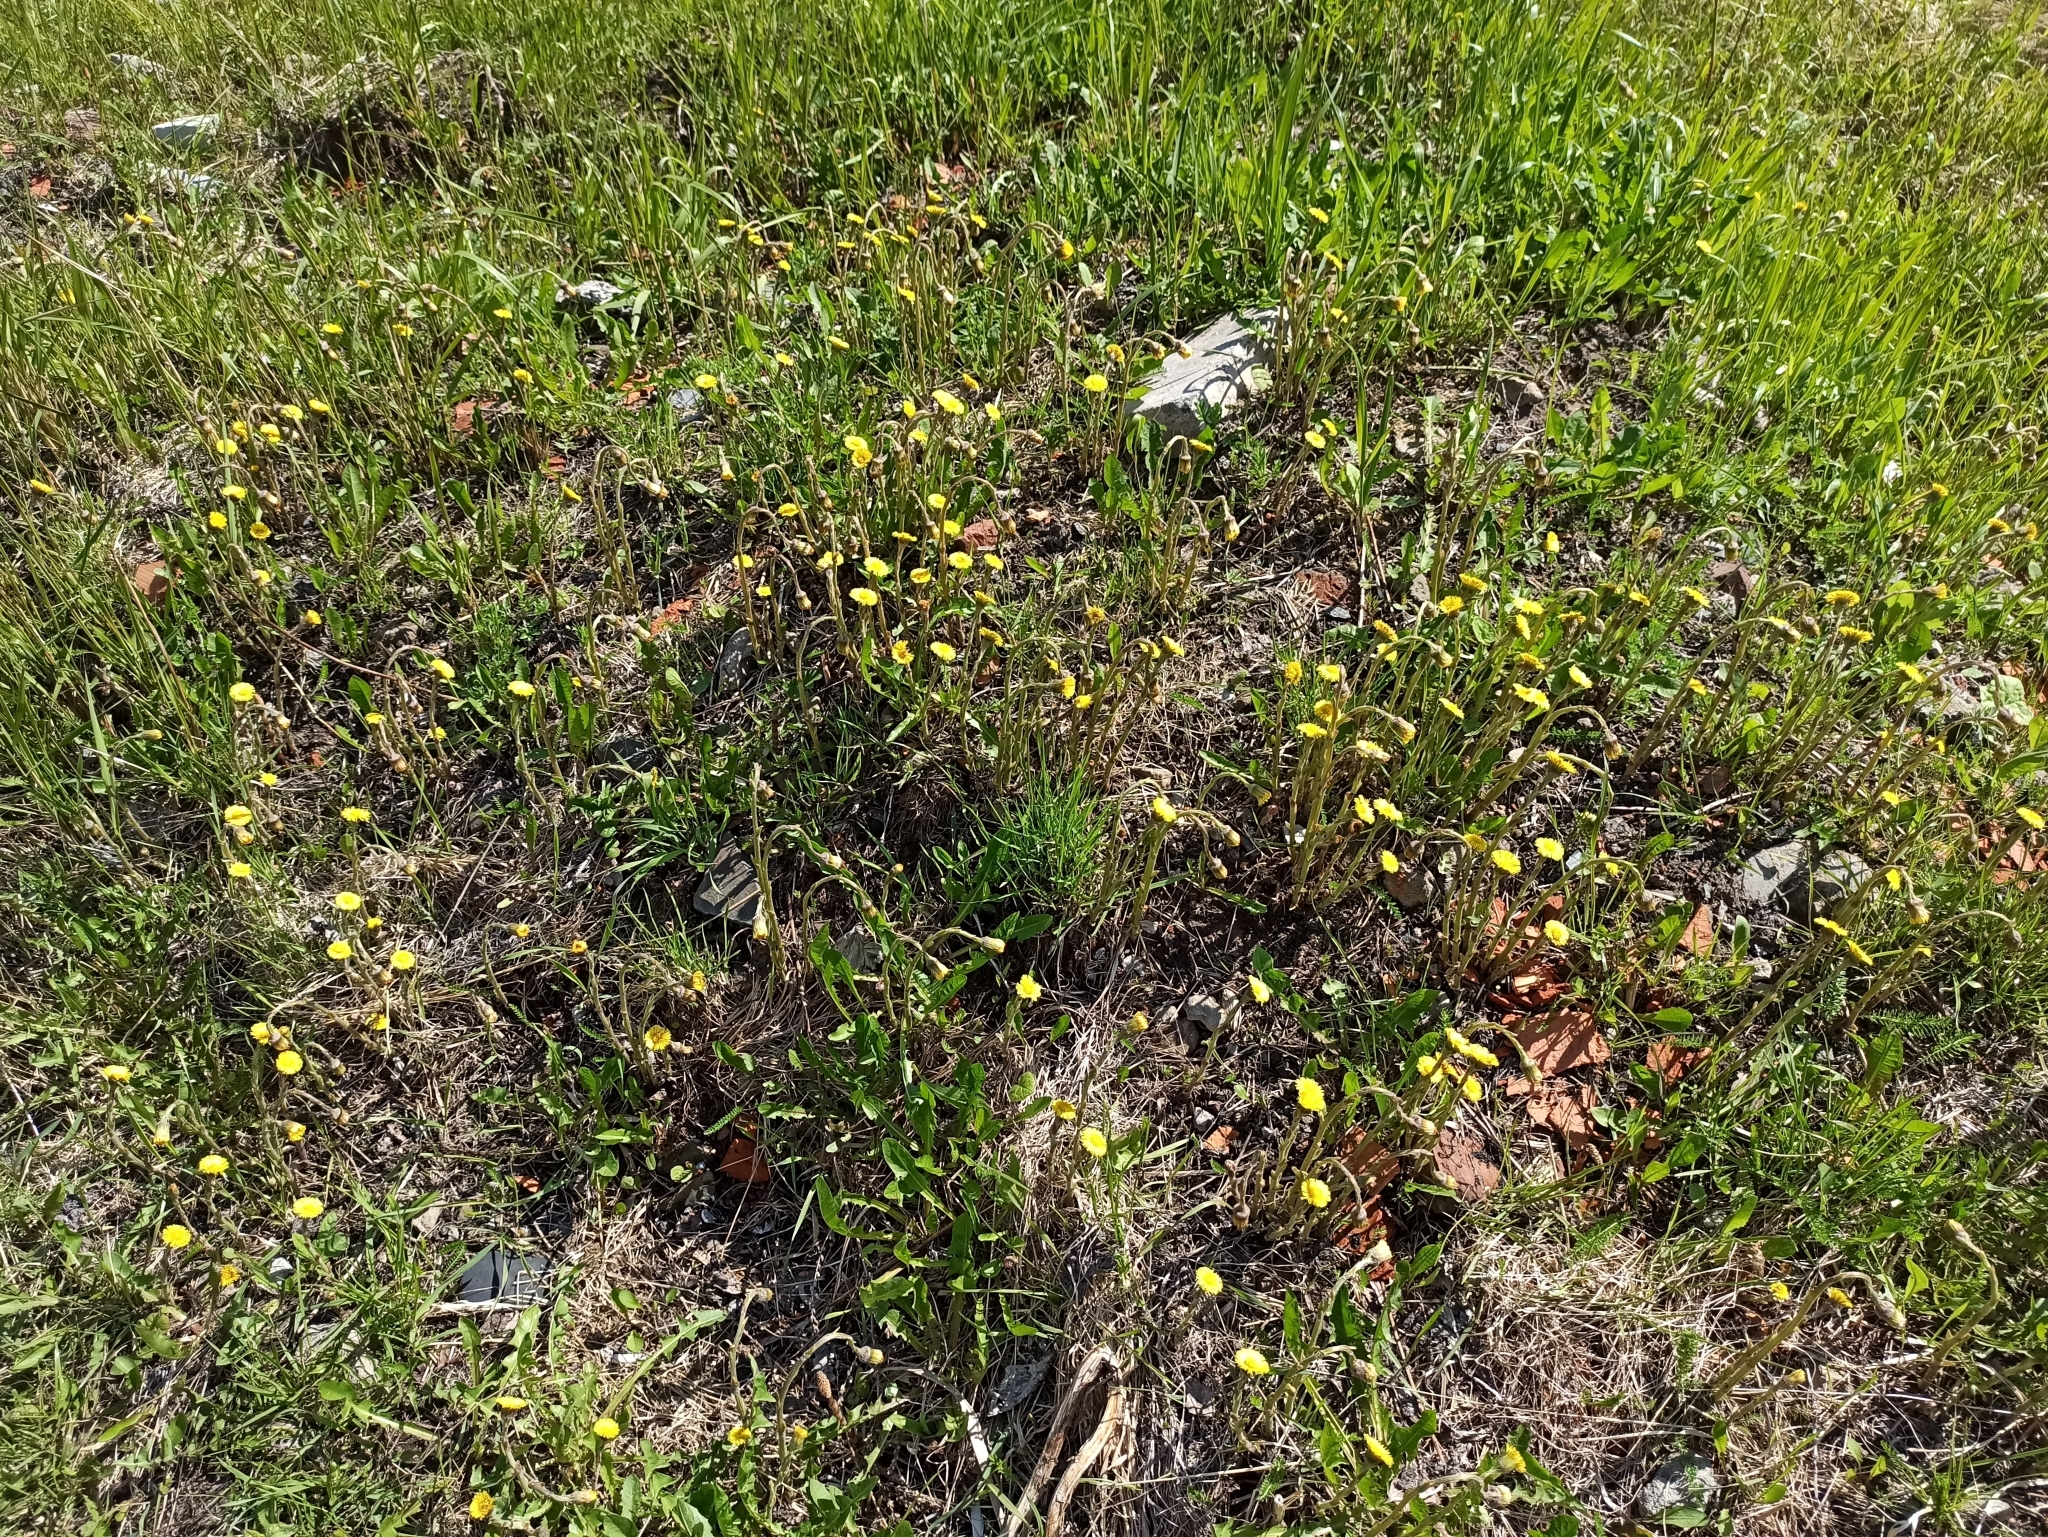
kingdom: Plantae
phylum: Tracheophyta
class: Magnoliopsida
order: Asterales
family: Asteraceae
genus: Tussilago
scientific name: Tussilago farfara
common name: Coltsfoot
